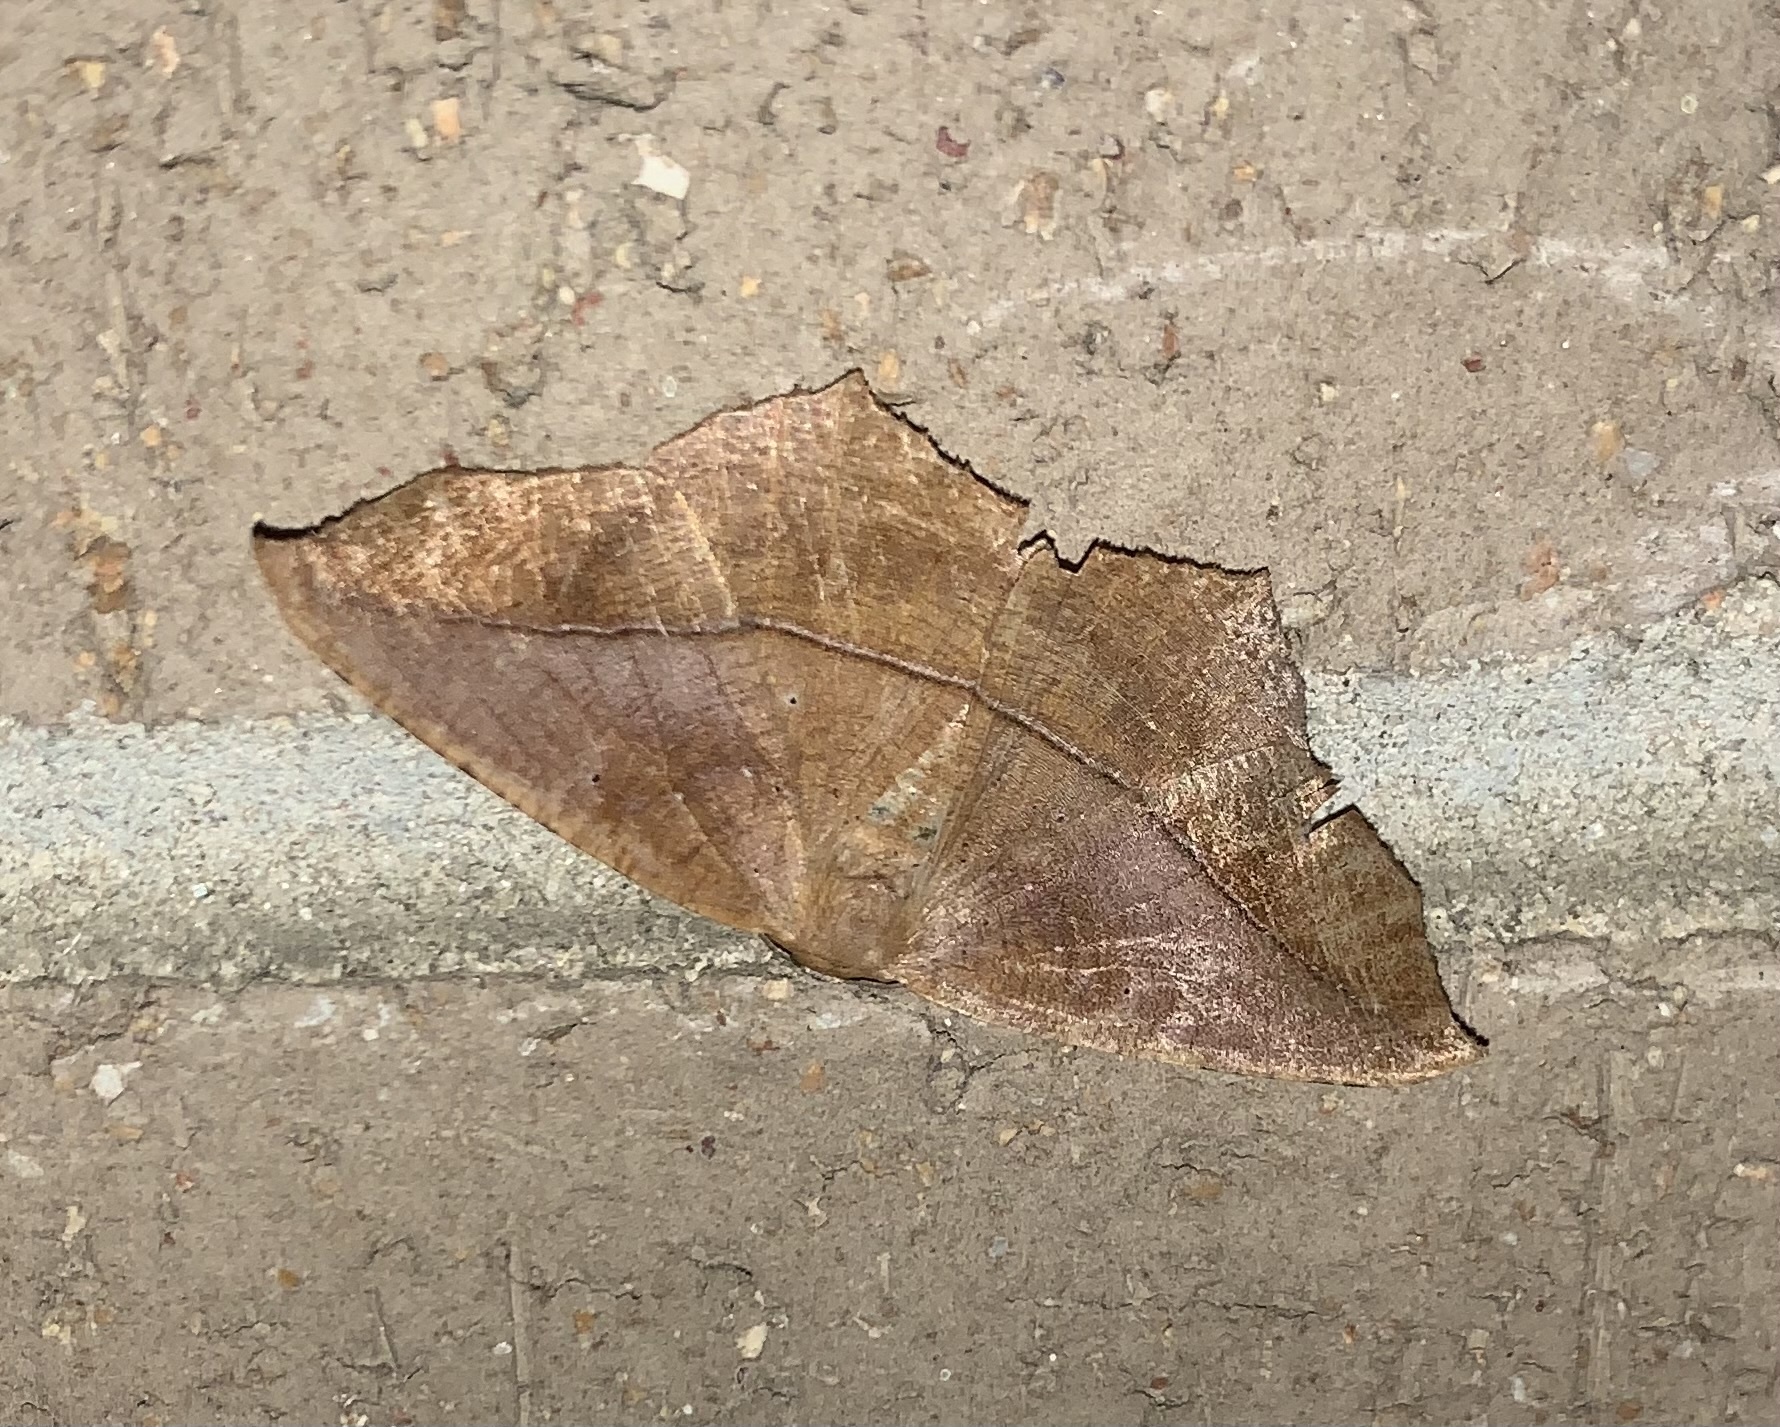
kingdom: Animalia
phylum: Arthropoda
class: Insecta
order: Lepidoptera
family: Geometridae
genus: Prochoerodes
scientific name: Prochoerodes lineola
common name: Large maple spanworm
